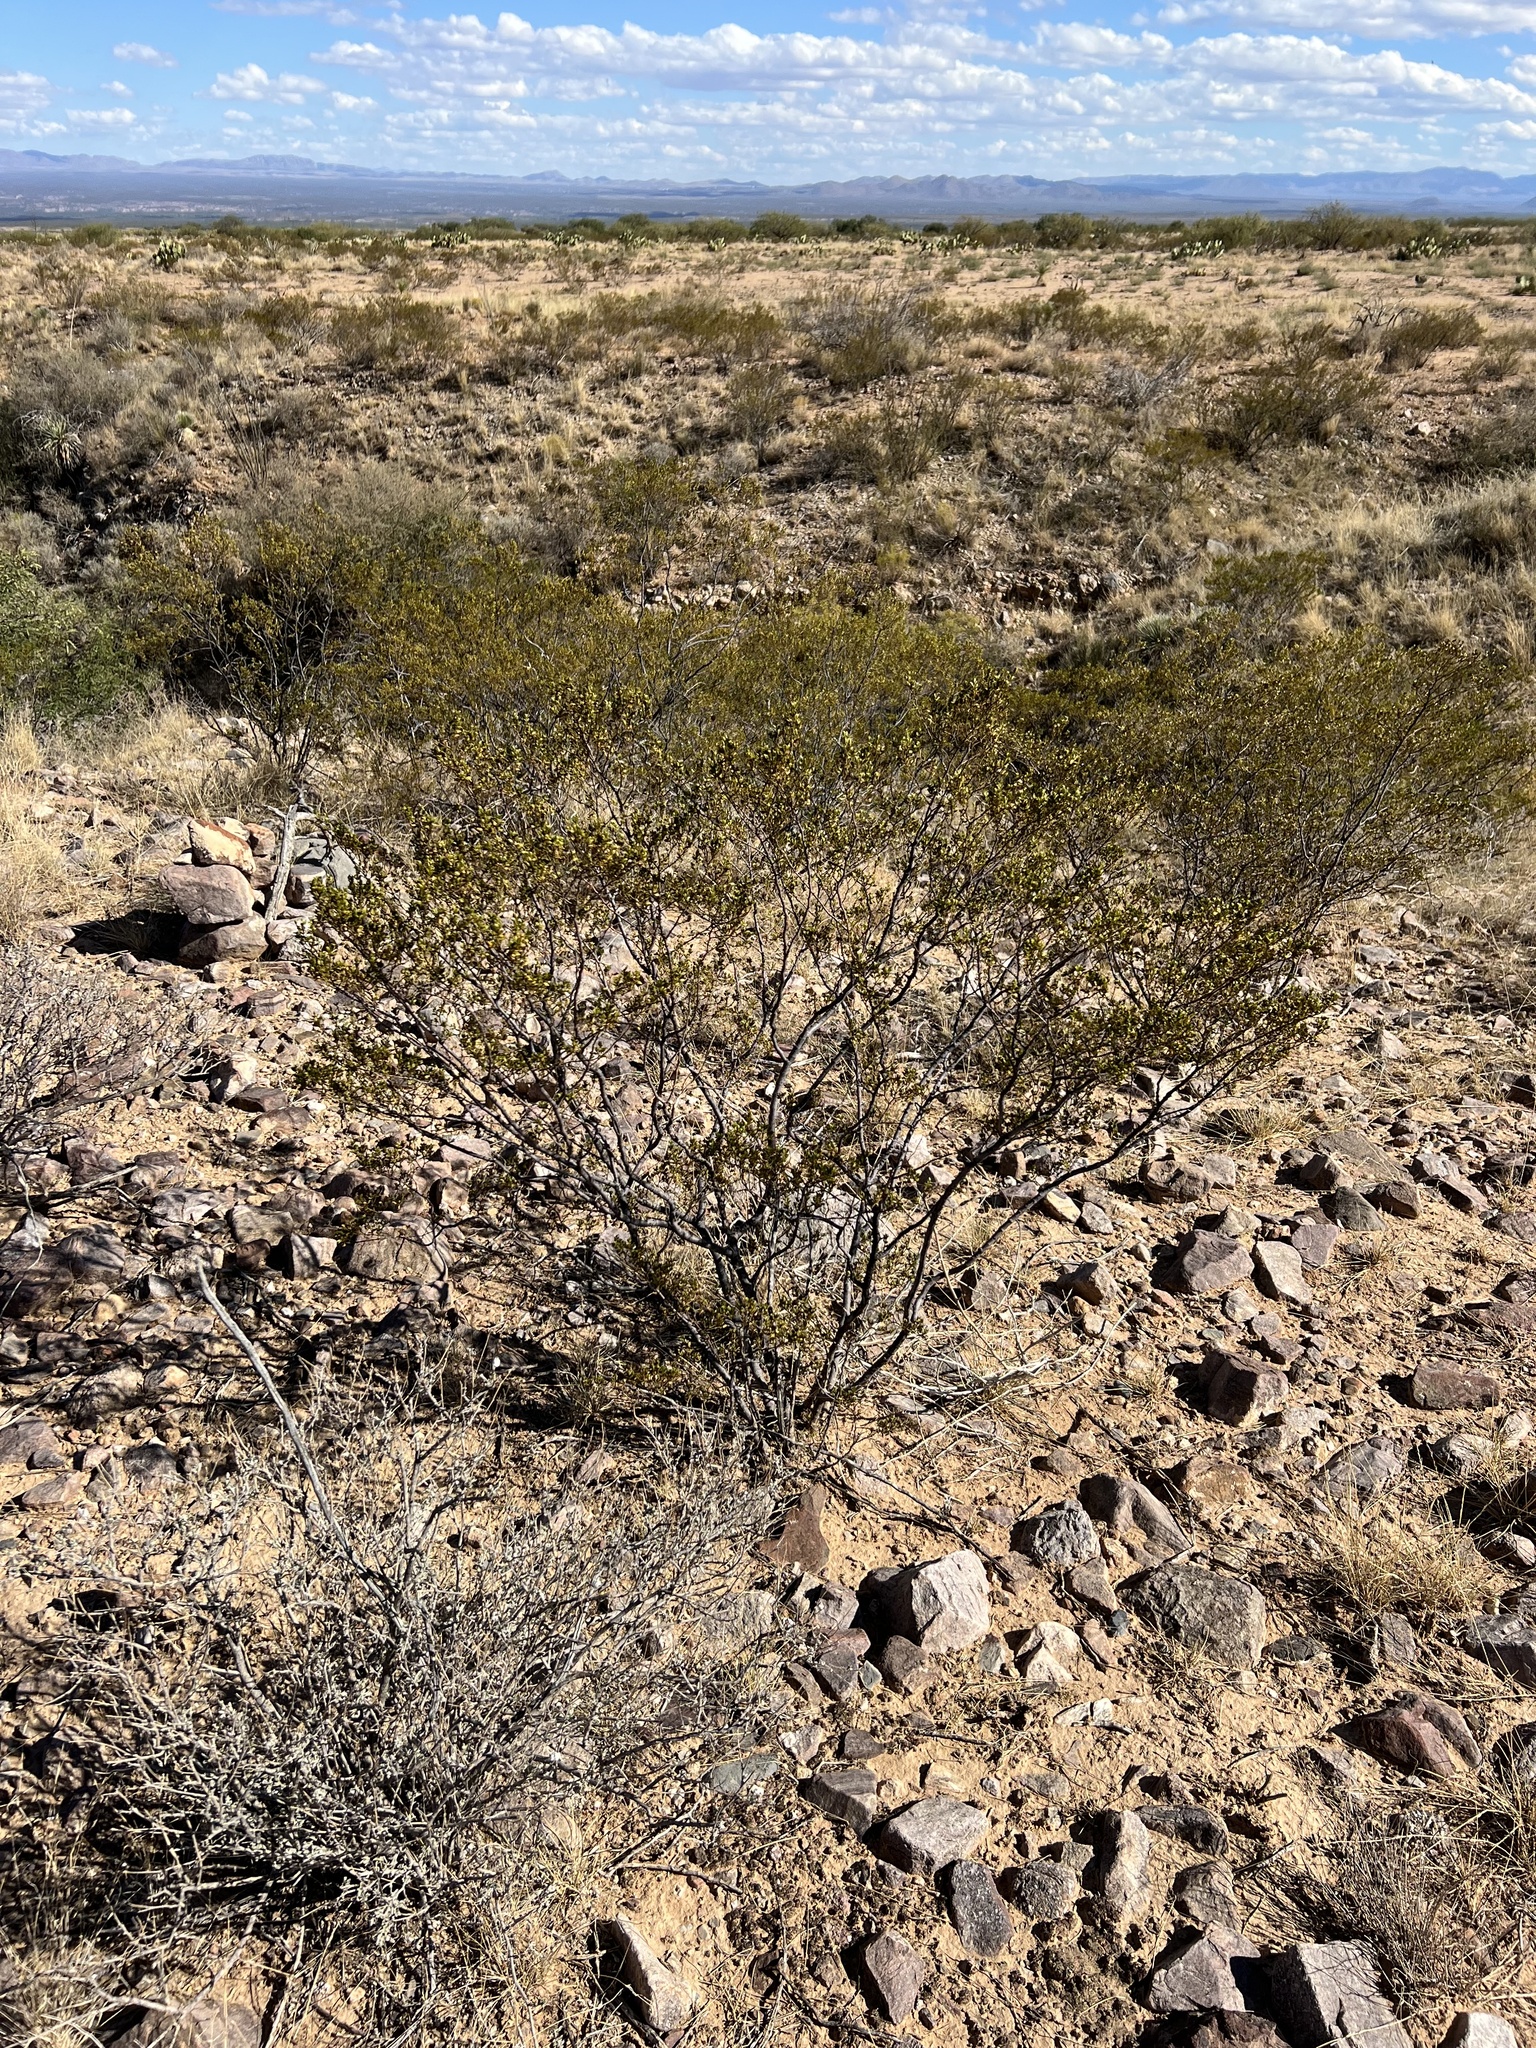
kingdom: Plantae
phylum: Tracheophyta
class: Magnoliopsida
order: Zygophyllales
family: Zygophyllaceae
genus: Larrea
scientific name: Larrea tridentata
